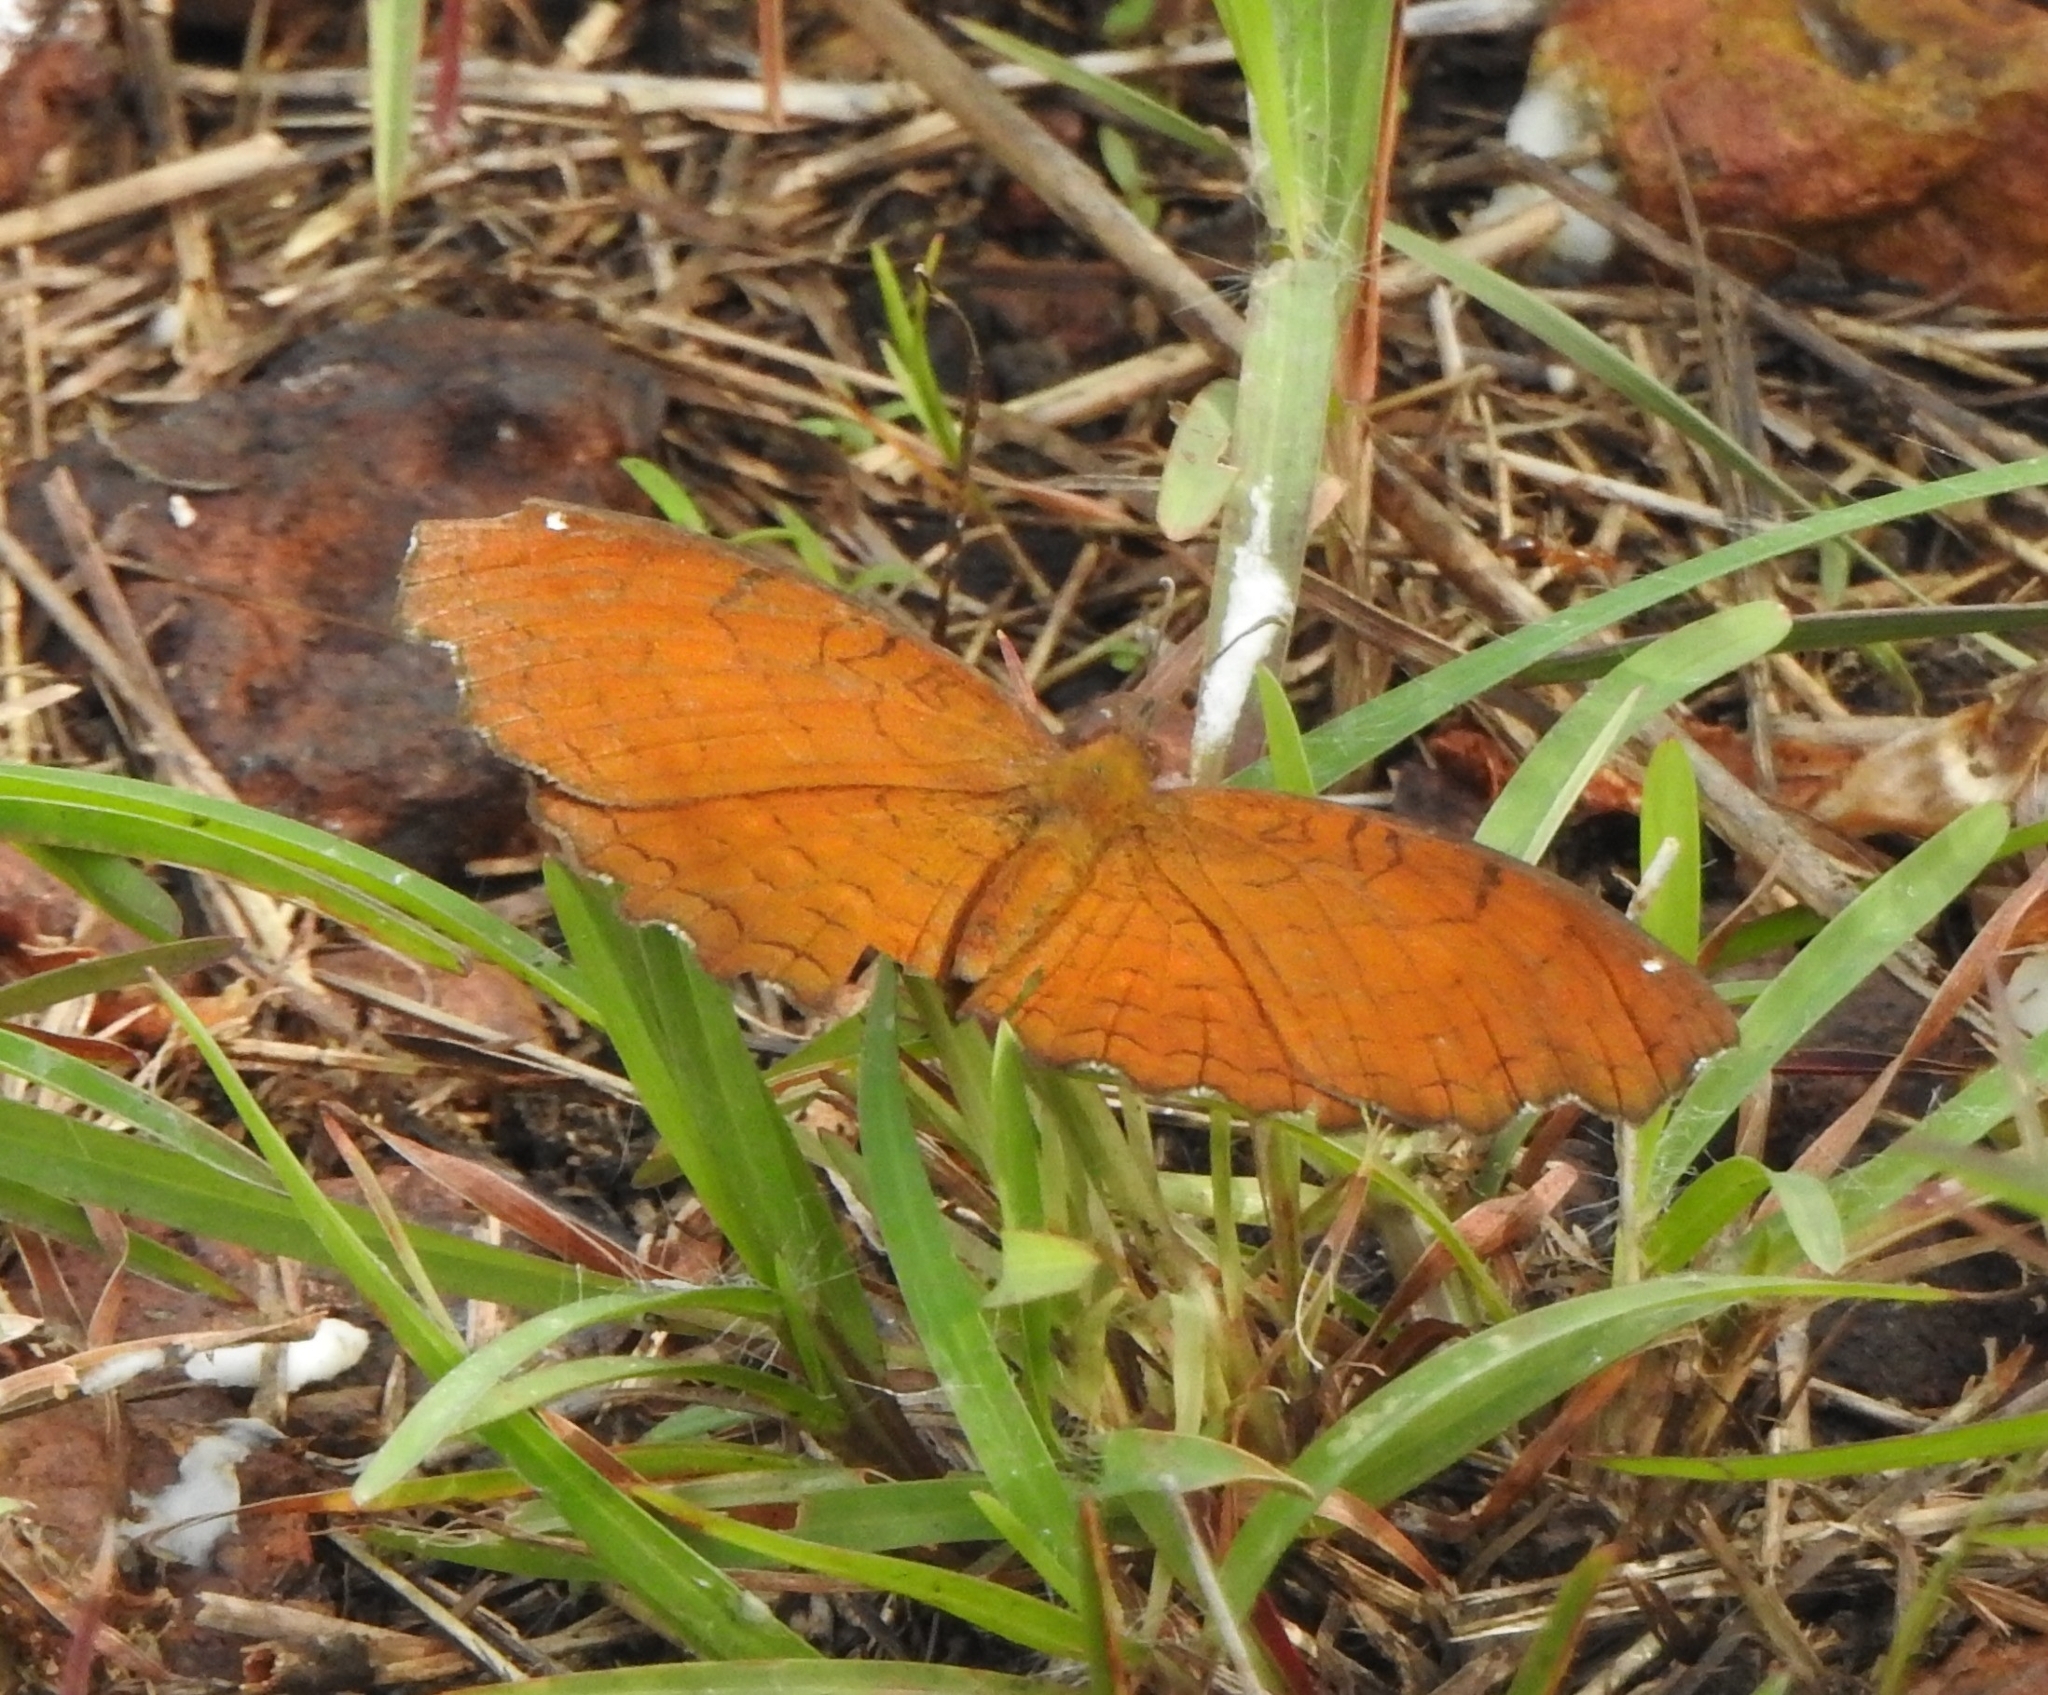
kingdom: Animalia
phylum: Arthropoda
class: Insecta
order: Lepidoptera
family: Nymphalidae
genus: Ariadne
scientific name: Ariadne ariadne
